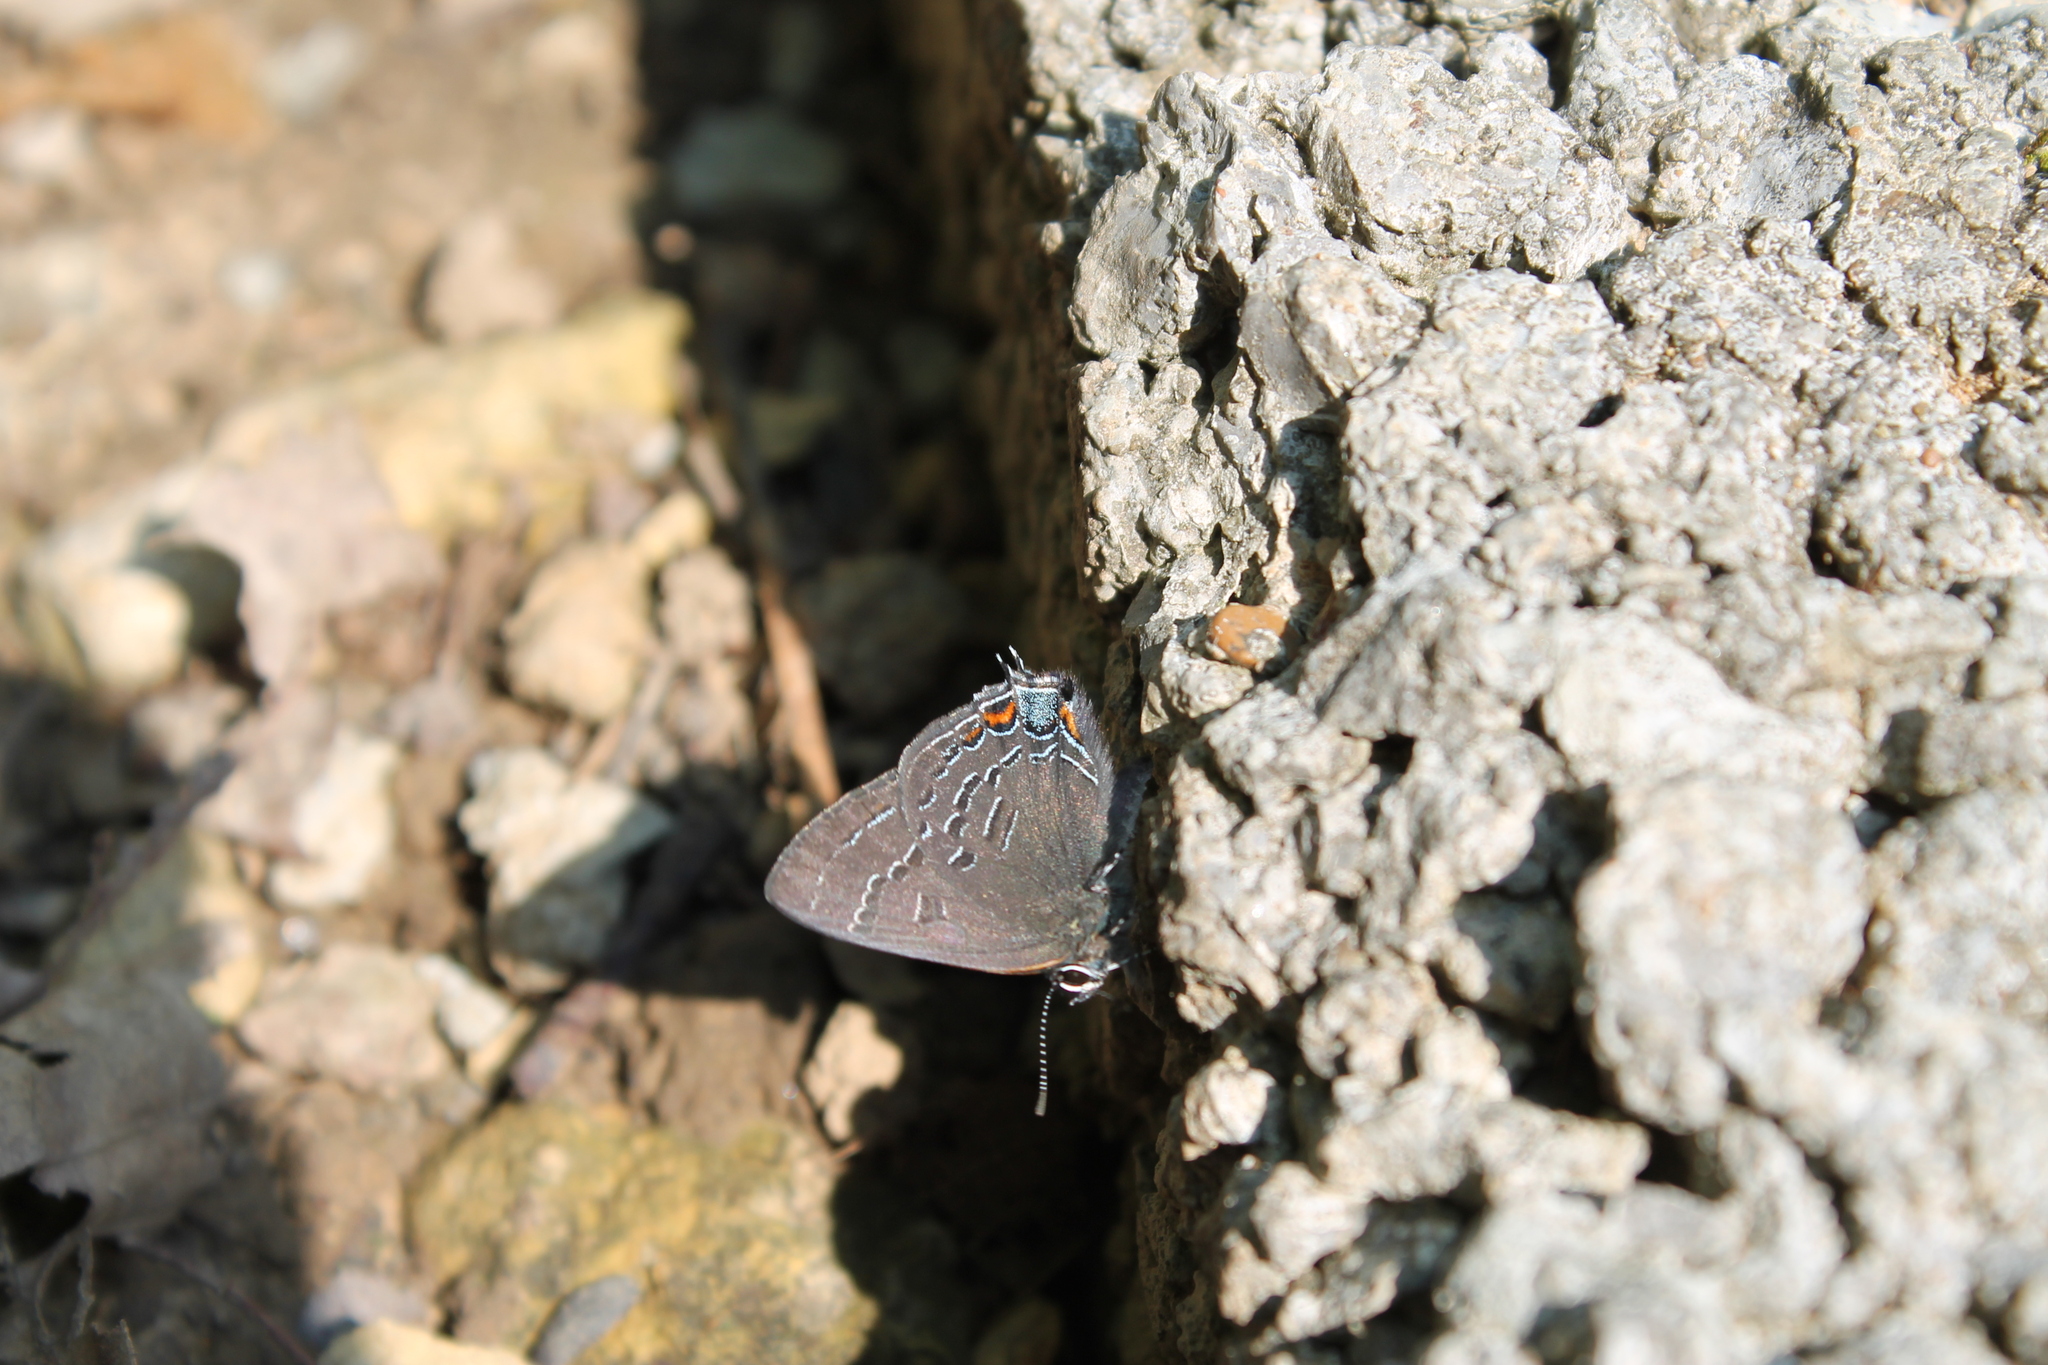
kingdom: Animalia
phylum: Arthropoda
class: Insecta
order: Lepidoptera
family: Lycaenidae
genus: Satyrium
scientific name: Satyrium calanus
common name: Banded hairstreak
